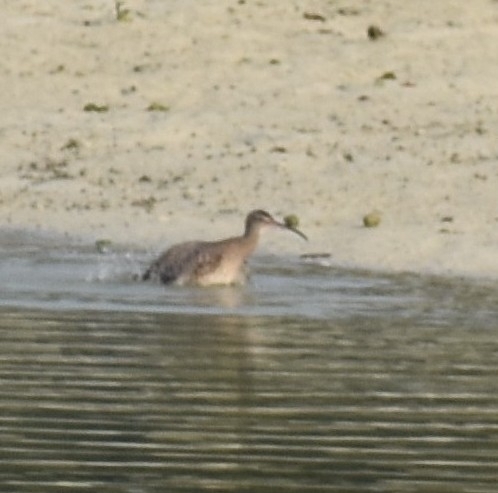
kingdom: Animalia
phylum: Chordata
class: Aves
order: Charadriiformes
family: Scolopacidae
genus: Numenius
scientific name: Numenius phaeopus
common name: Whimbrel
